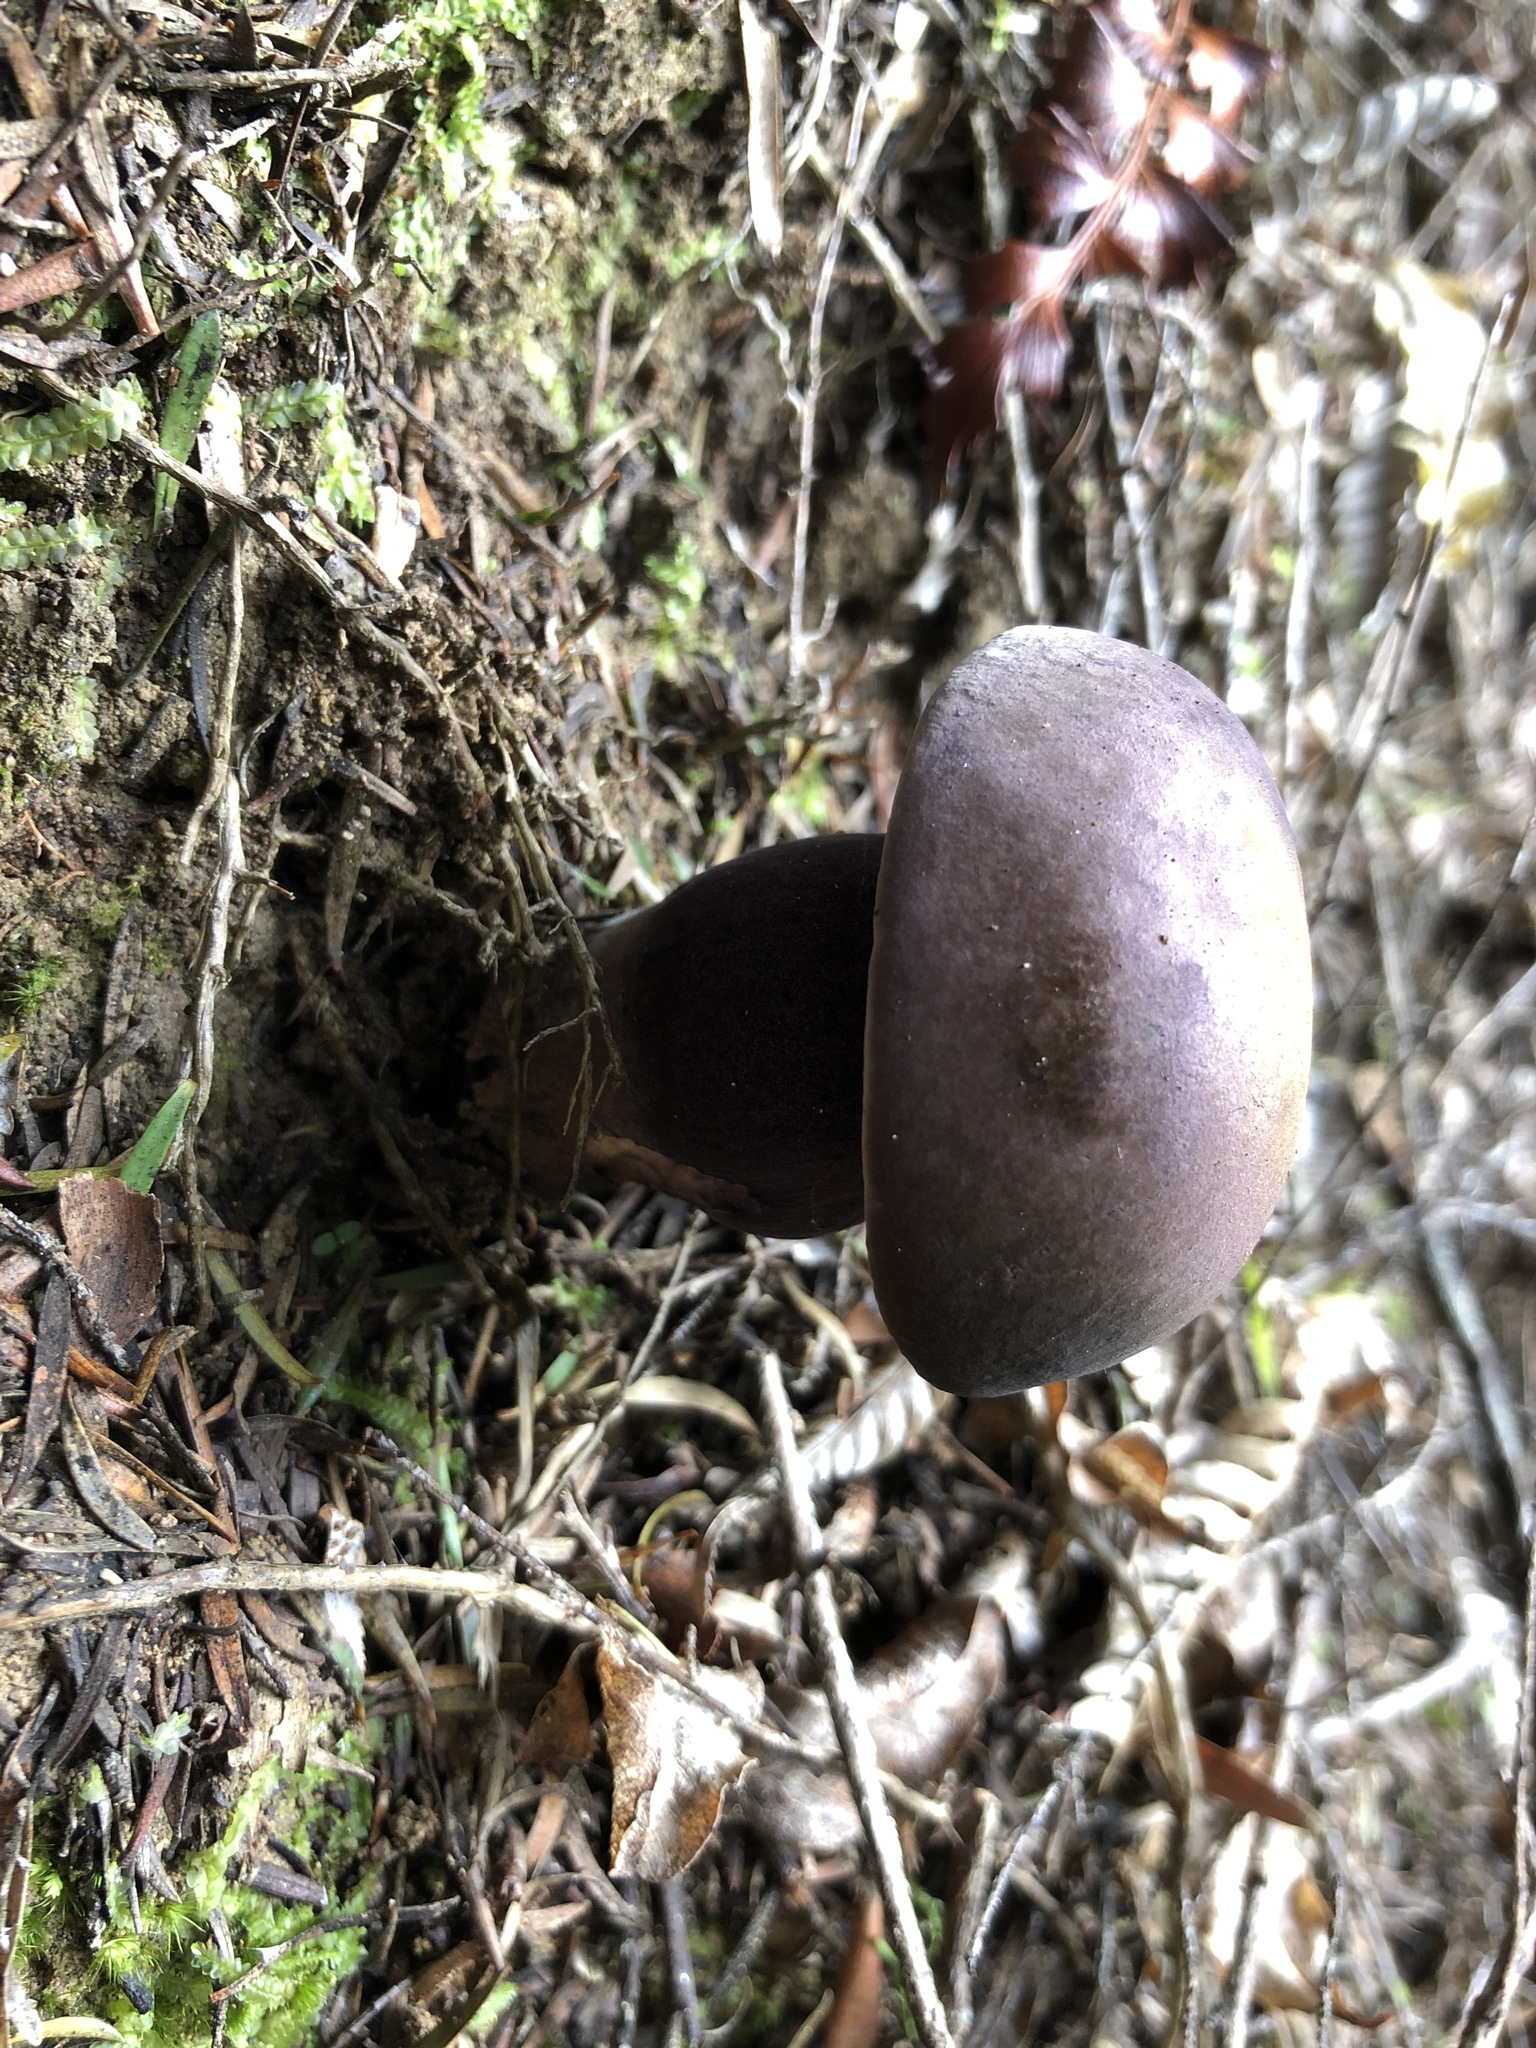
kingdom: Fungi
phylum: Basidiomycota
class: Agaricomycetes
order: Boletales
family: Boletaceae
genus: Porphyrellus
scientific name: Porphyrellus formosus
